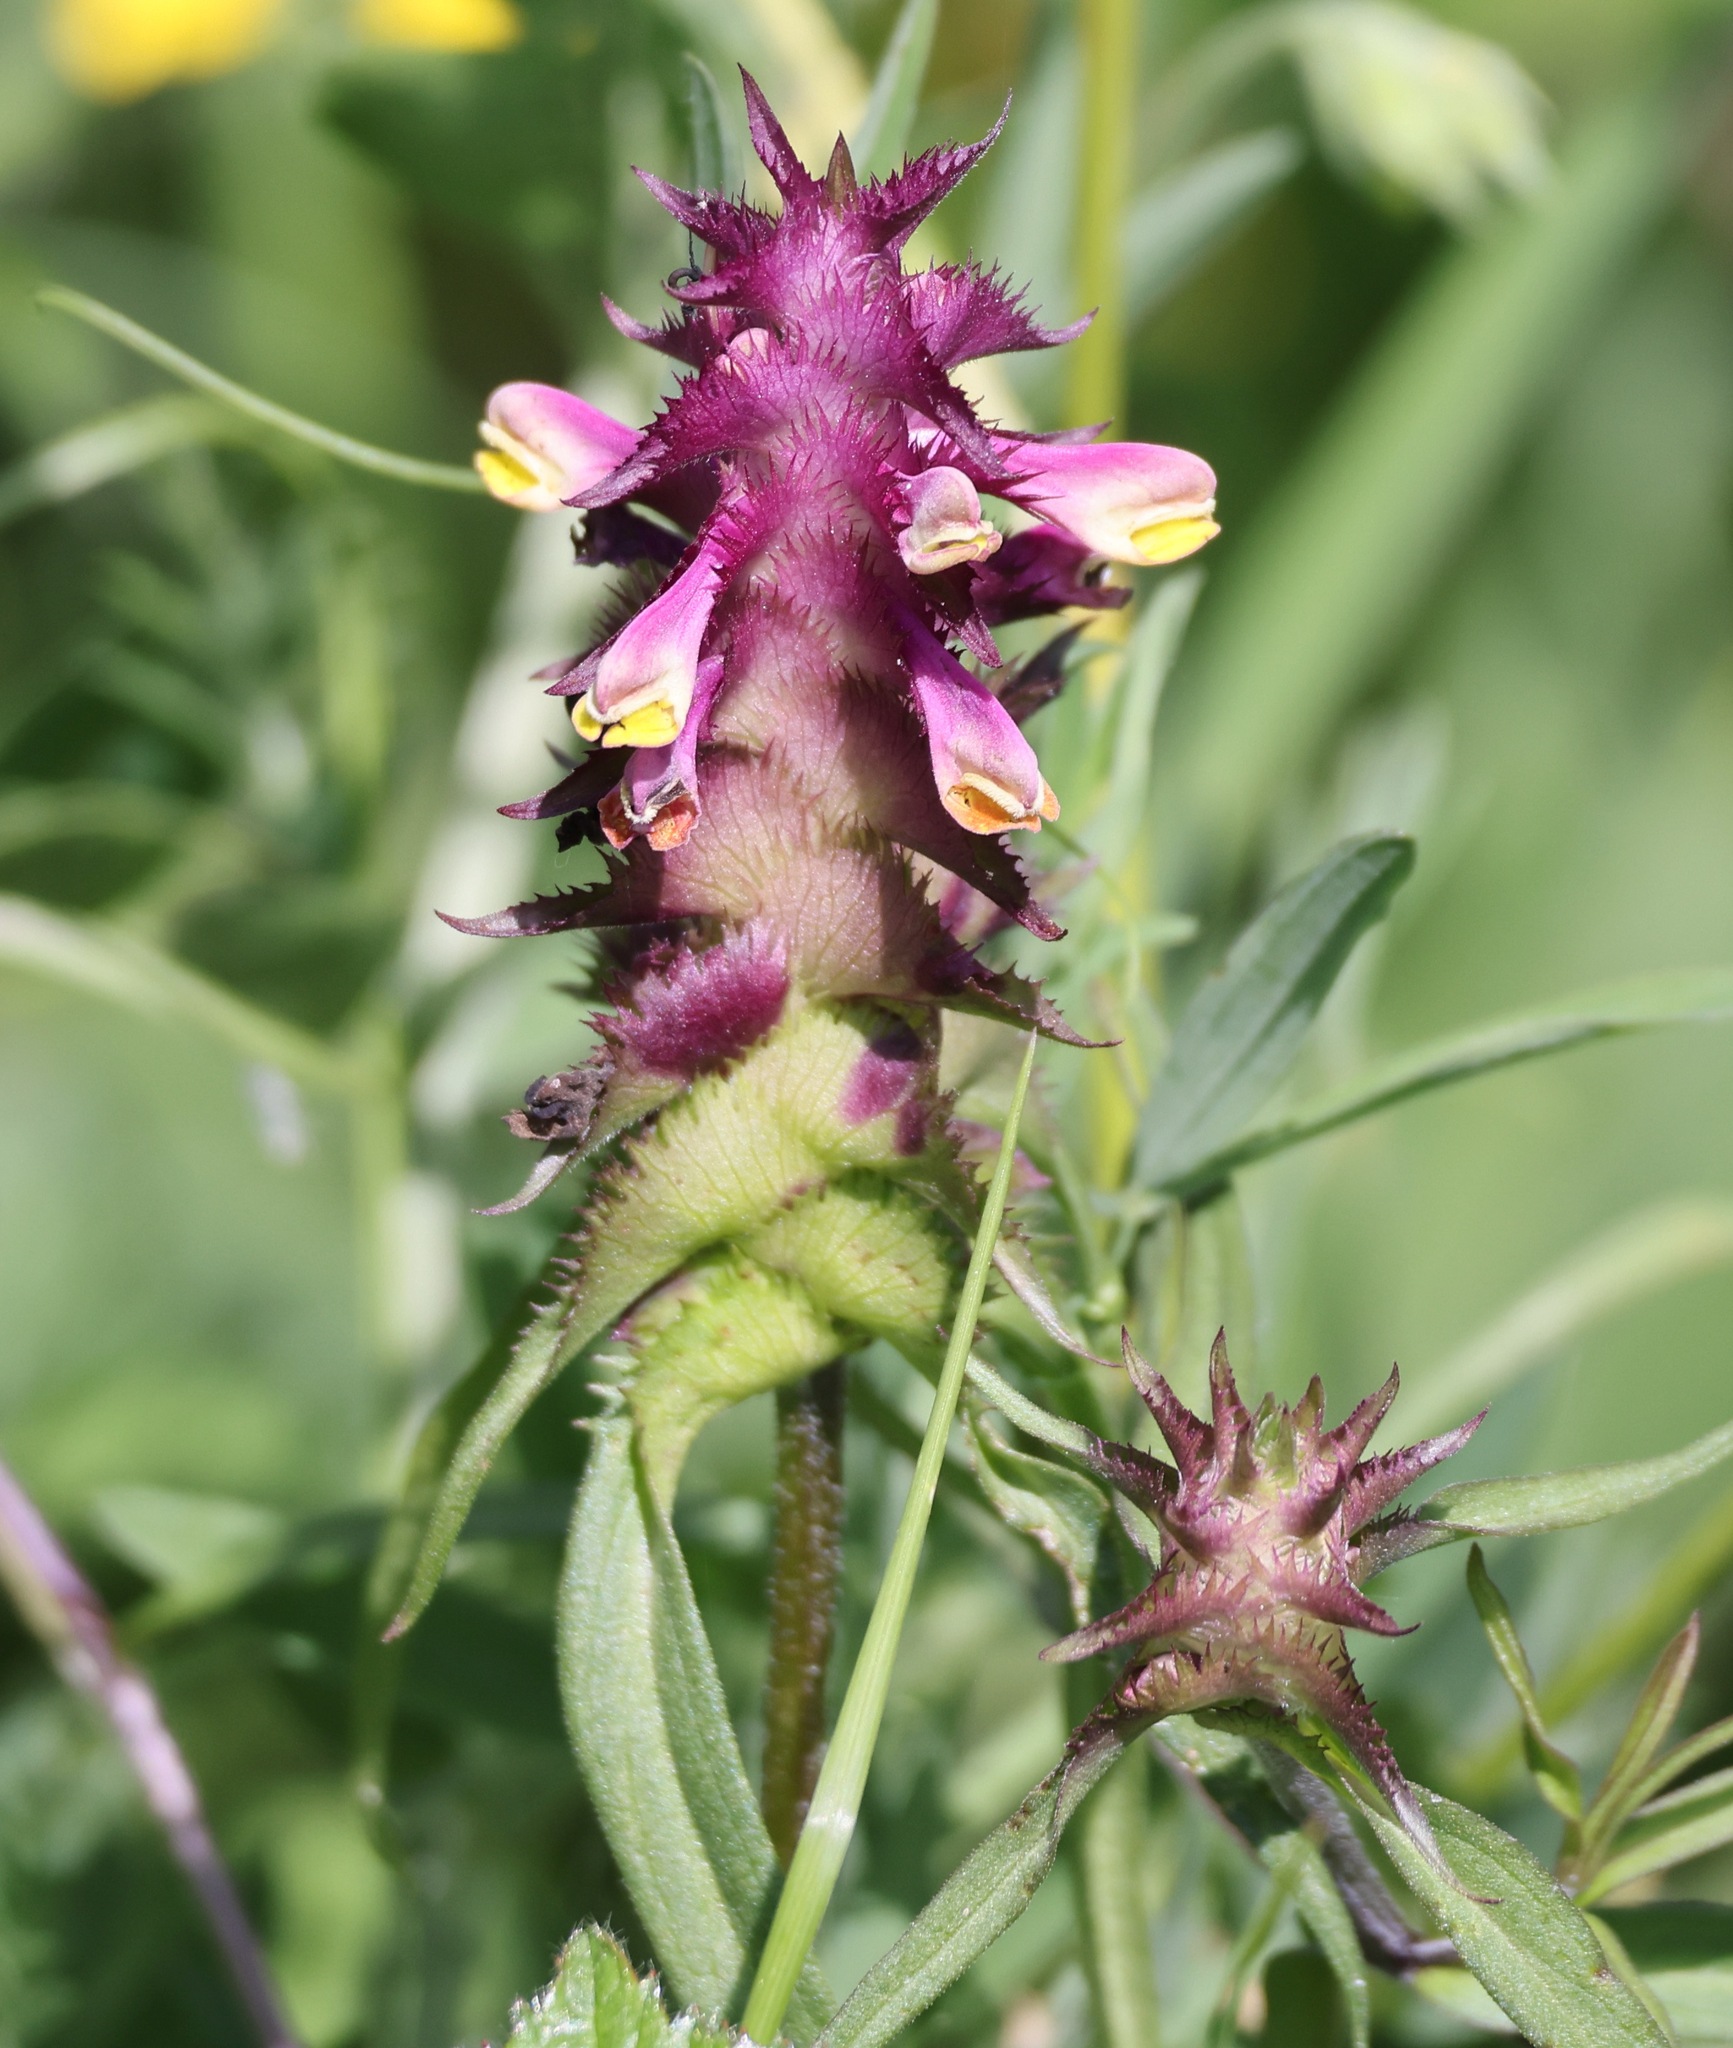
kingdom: Plantae
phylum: Tracheophyta
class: Magnoliopsida
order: Lamiales
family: Orobanchaceae
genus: Melampyrum
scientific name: Melampyrum cristatum
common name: Crested cow-wheat
